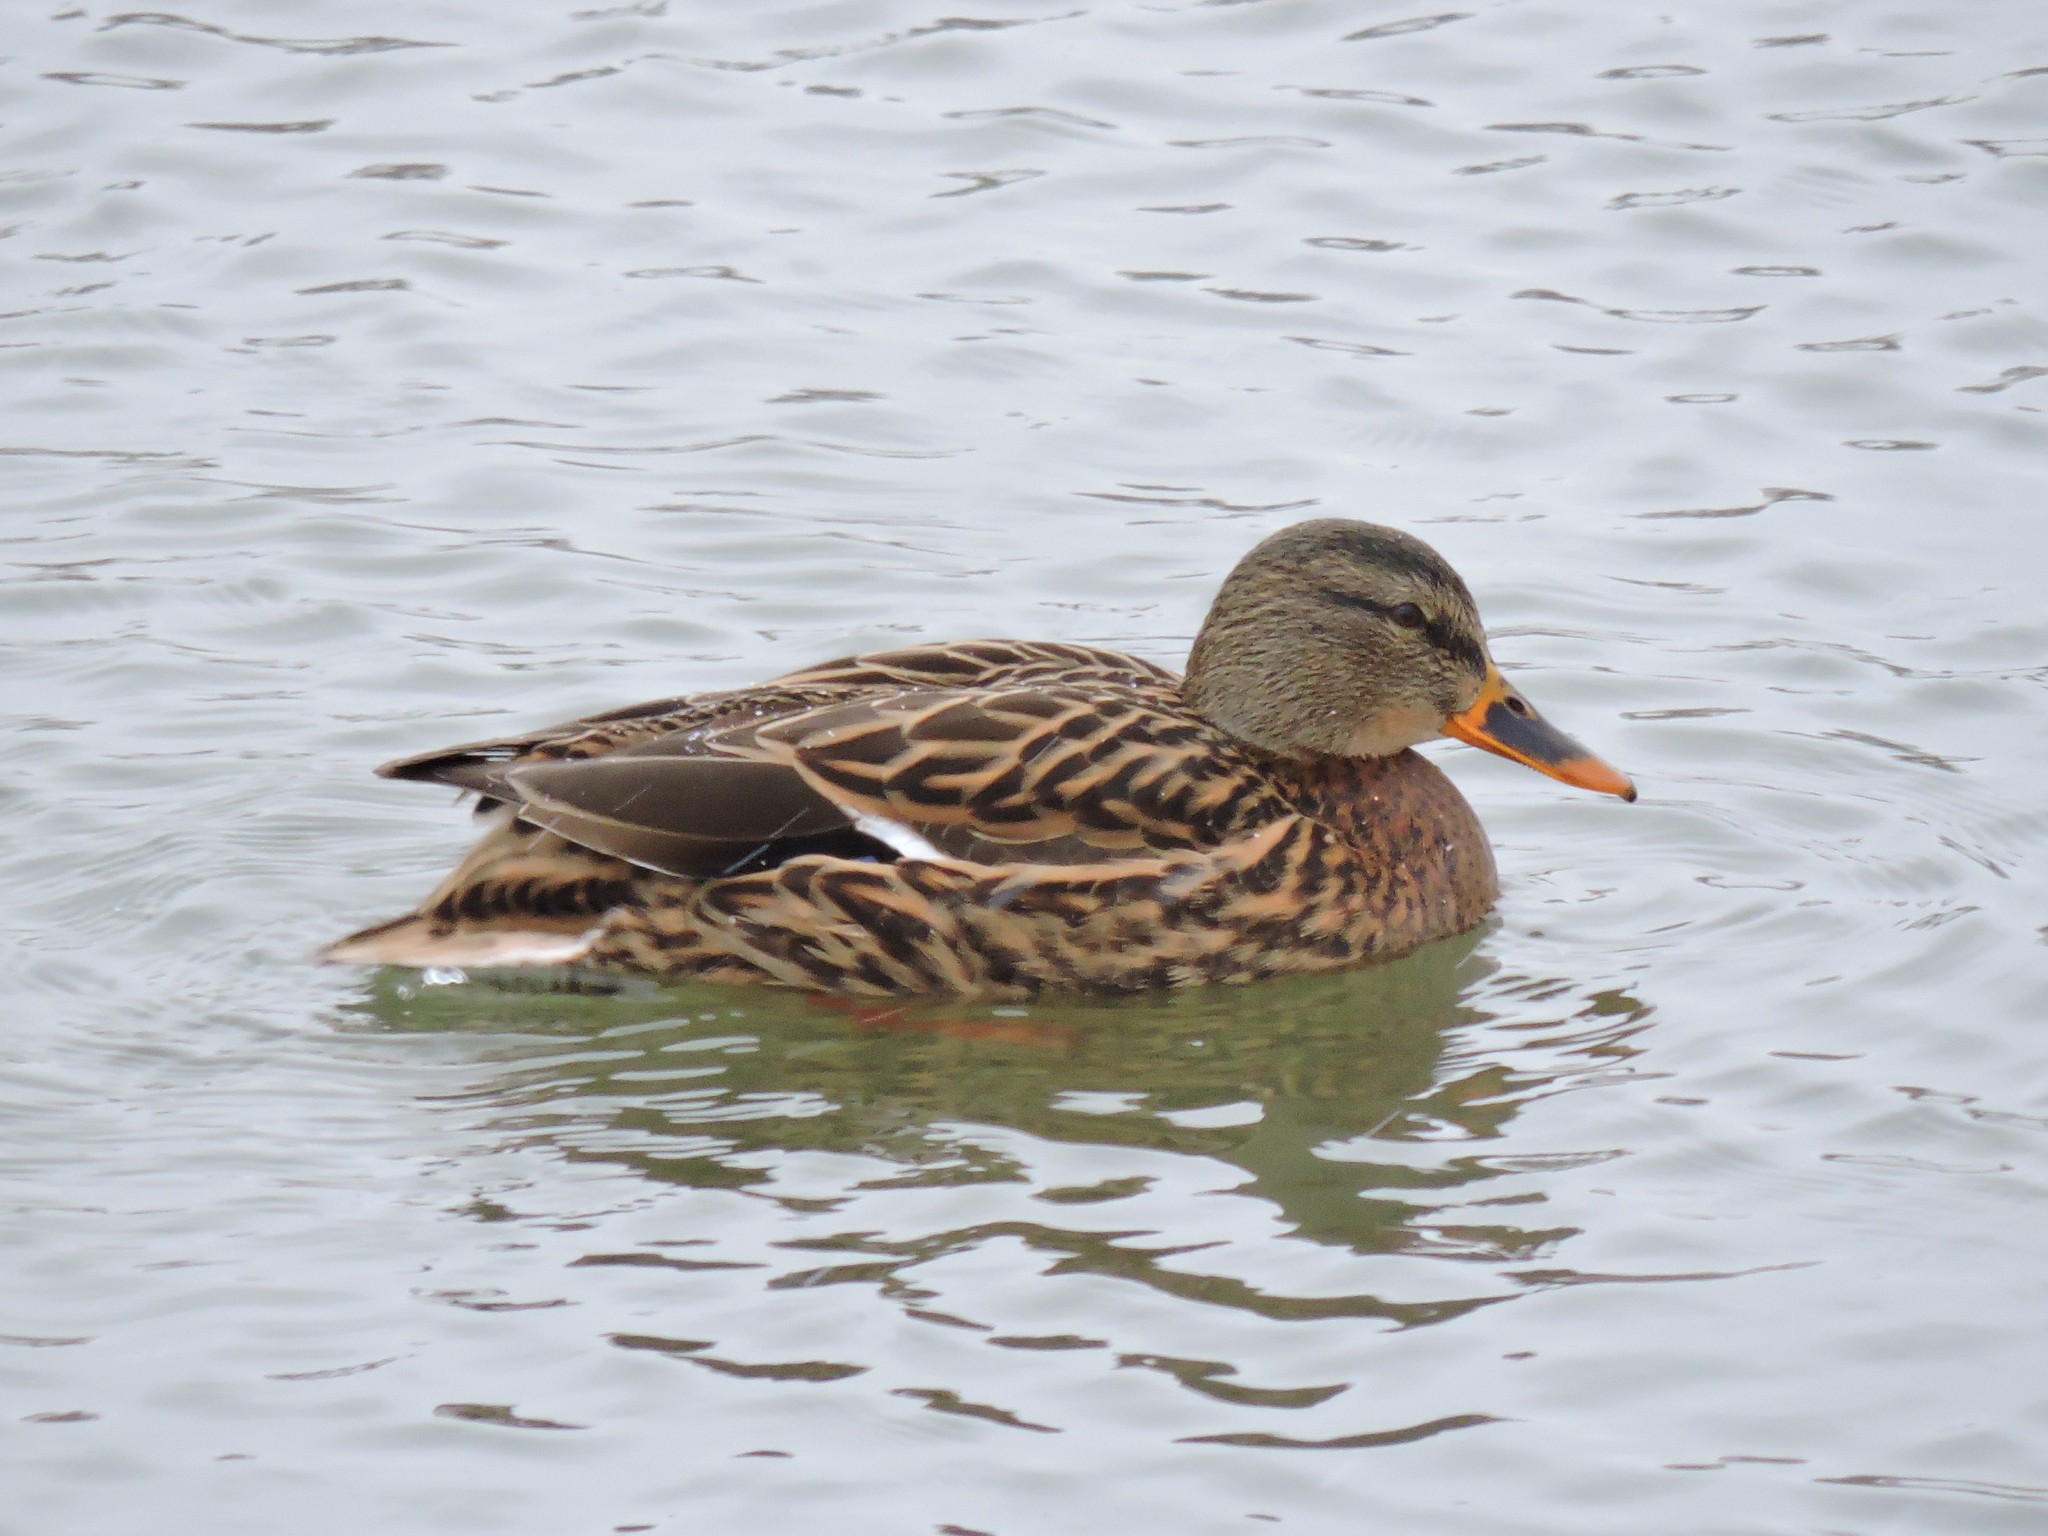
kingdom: Animalia
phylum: Chordata
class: Aves
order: Anseriformes
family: Anatidae
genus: Anas
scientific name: Anas platyrhynchos
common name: Mallard
